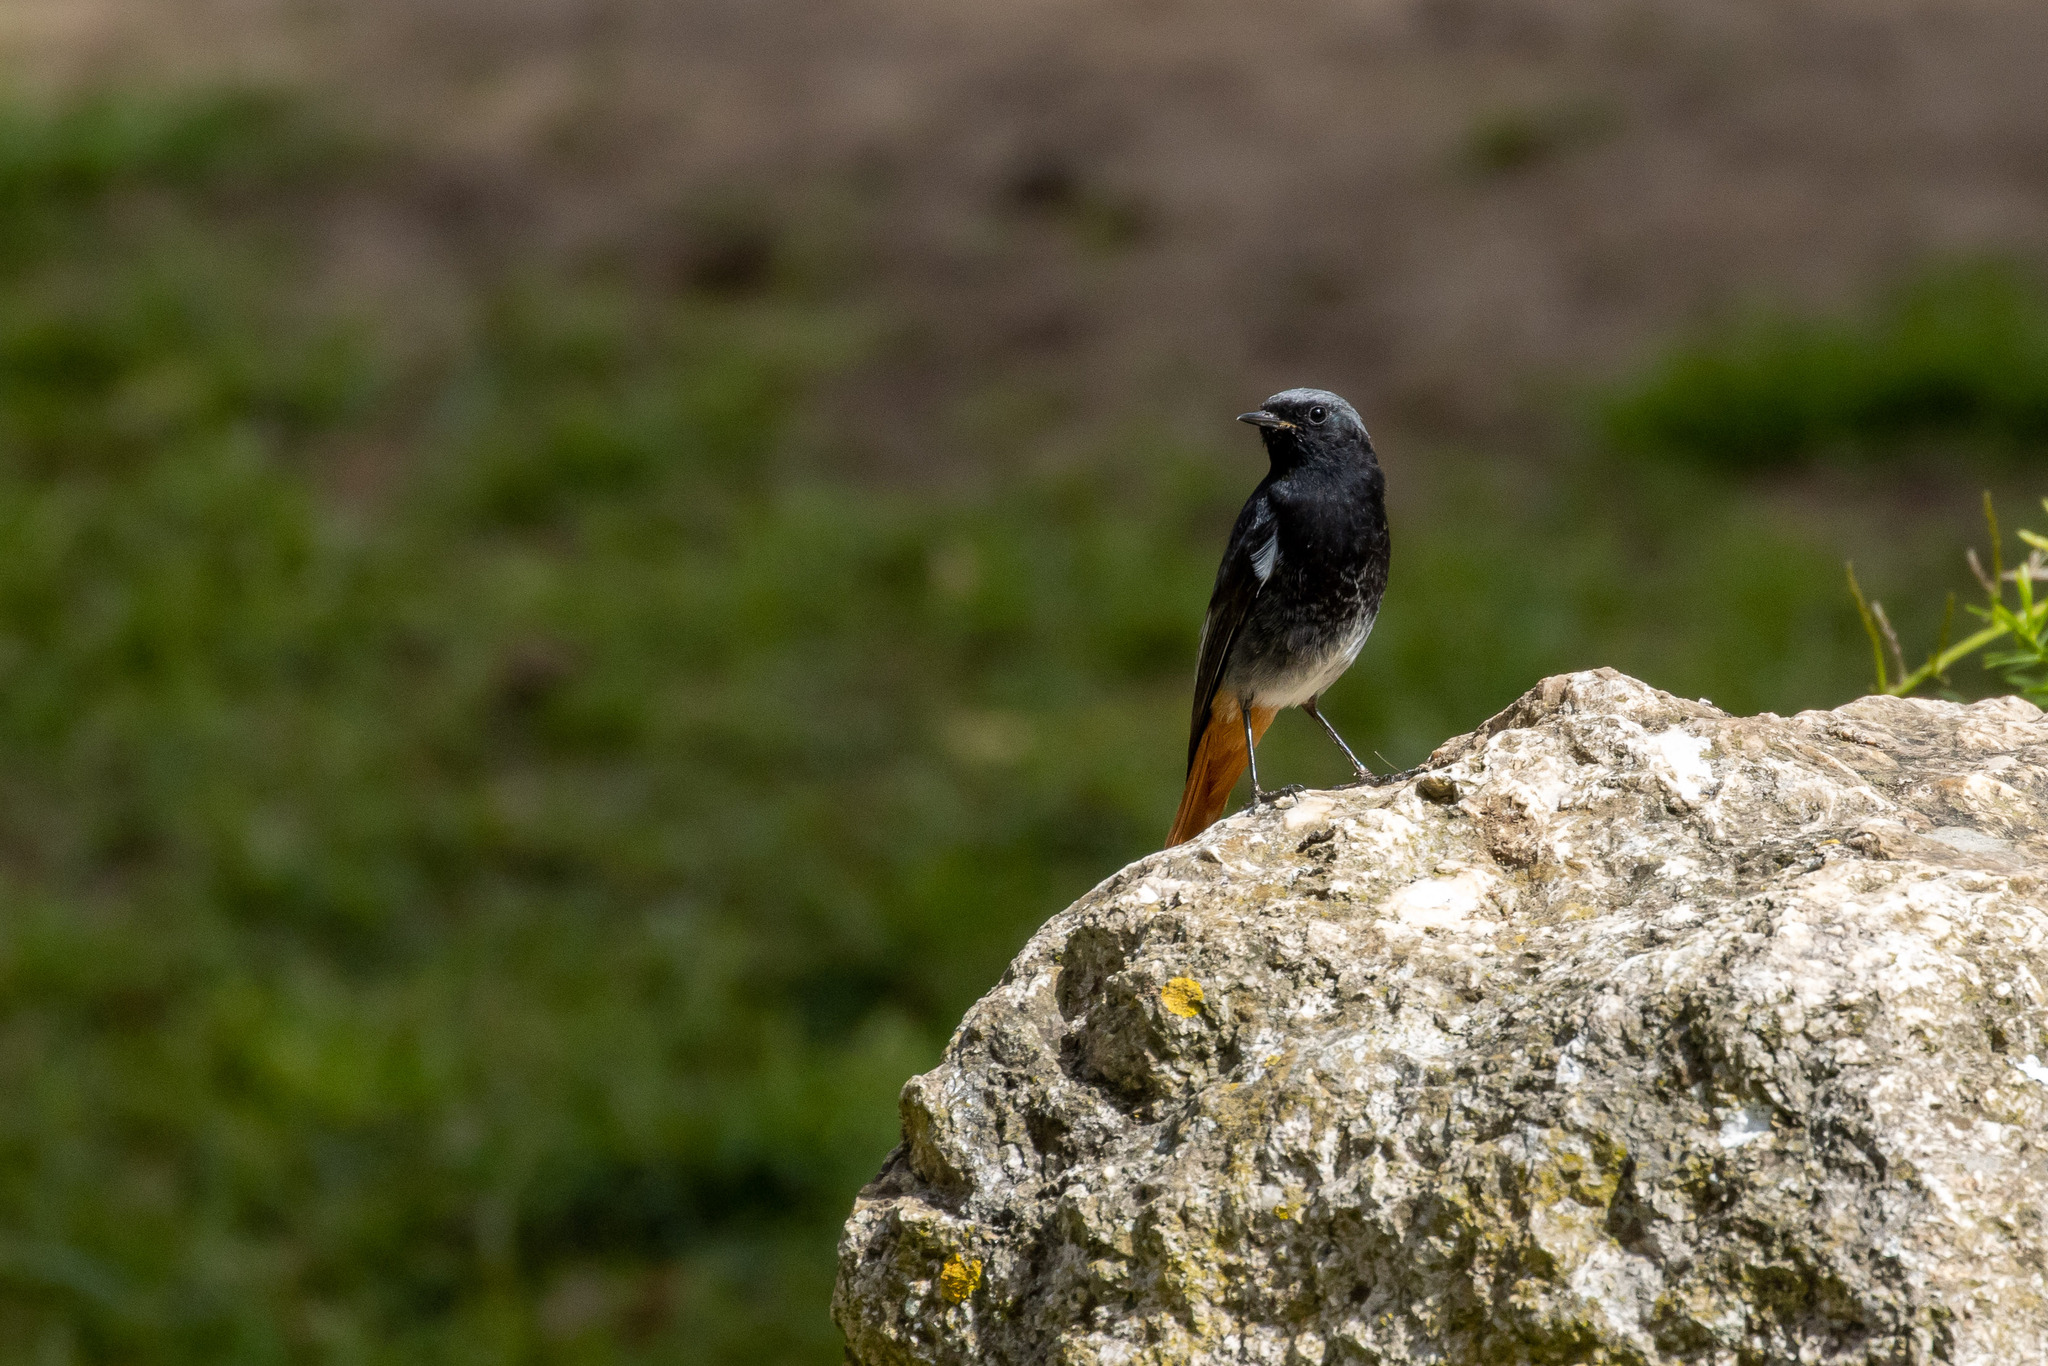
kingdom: Animalia
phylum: Chordata
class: Aves
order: Passeriformes
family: Muscicapidae
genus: Phoenicurus
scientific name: Phoenicurus ochruros
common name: Black redstart
